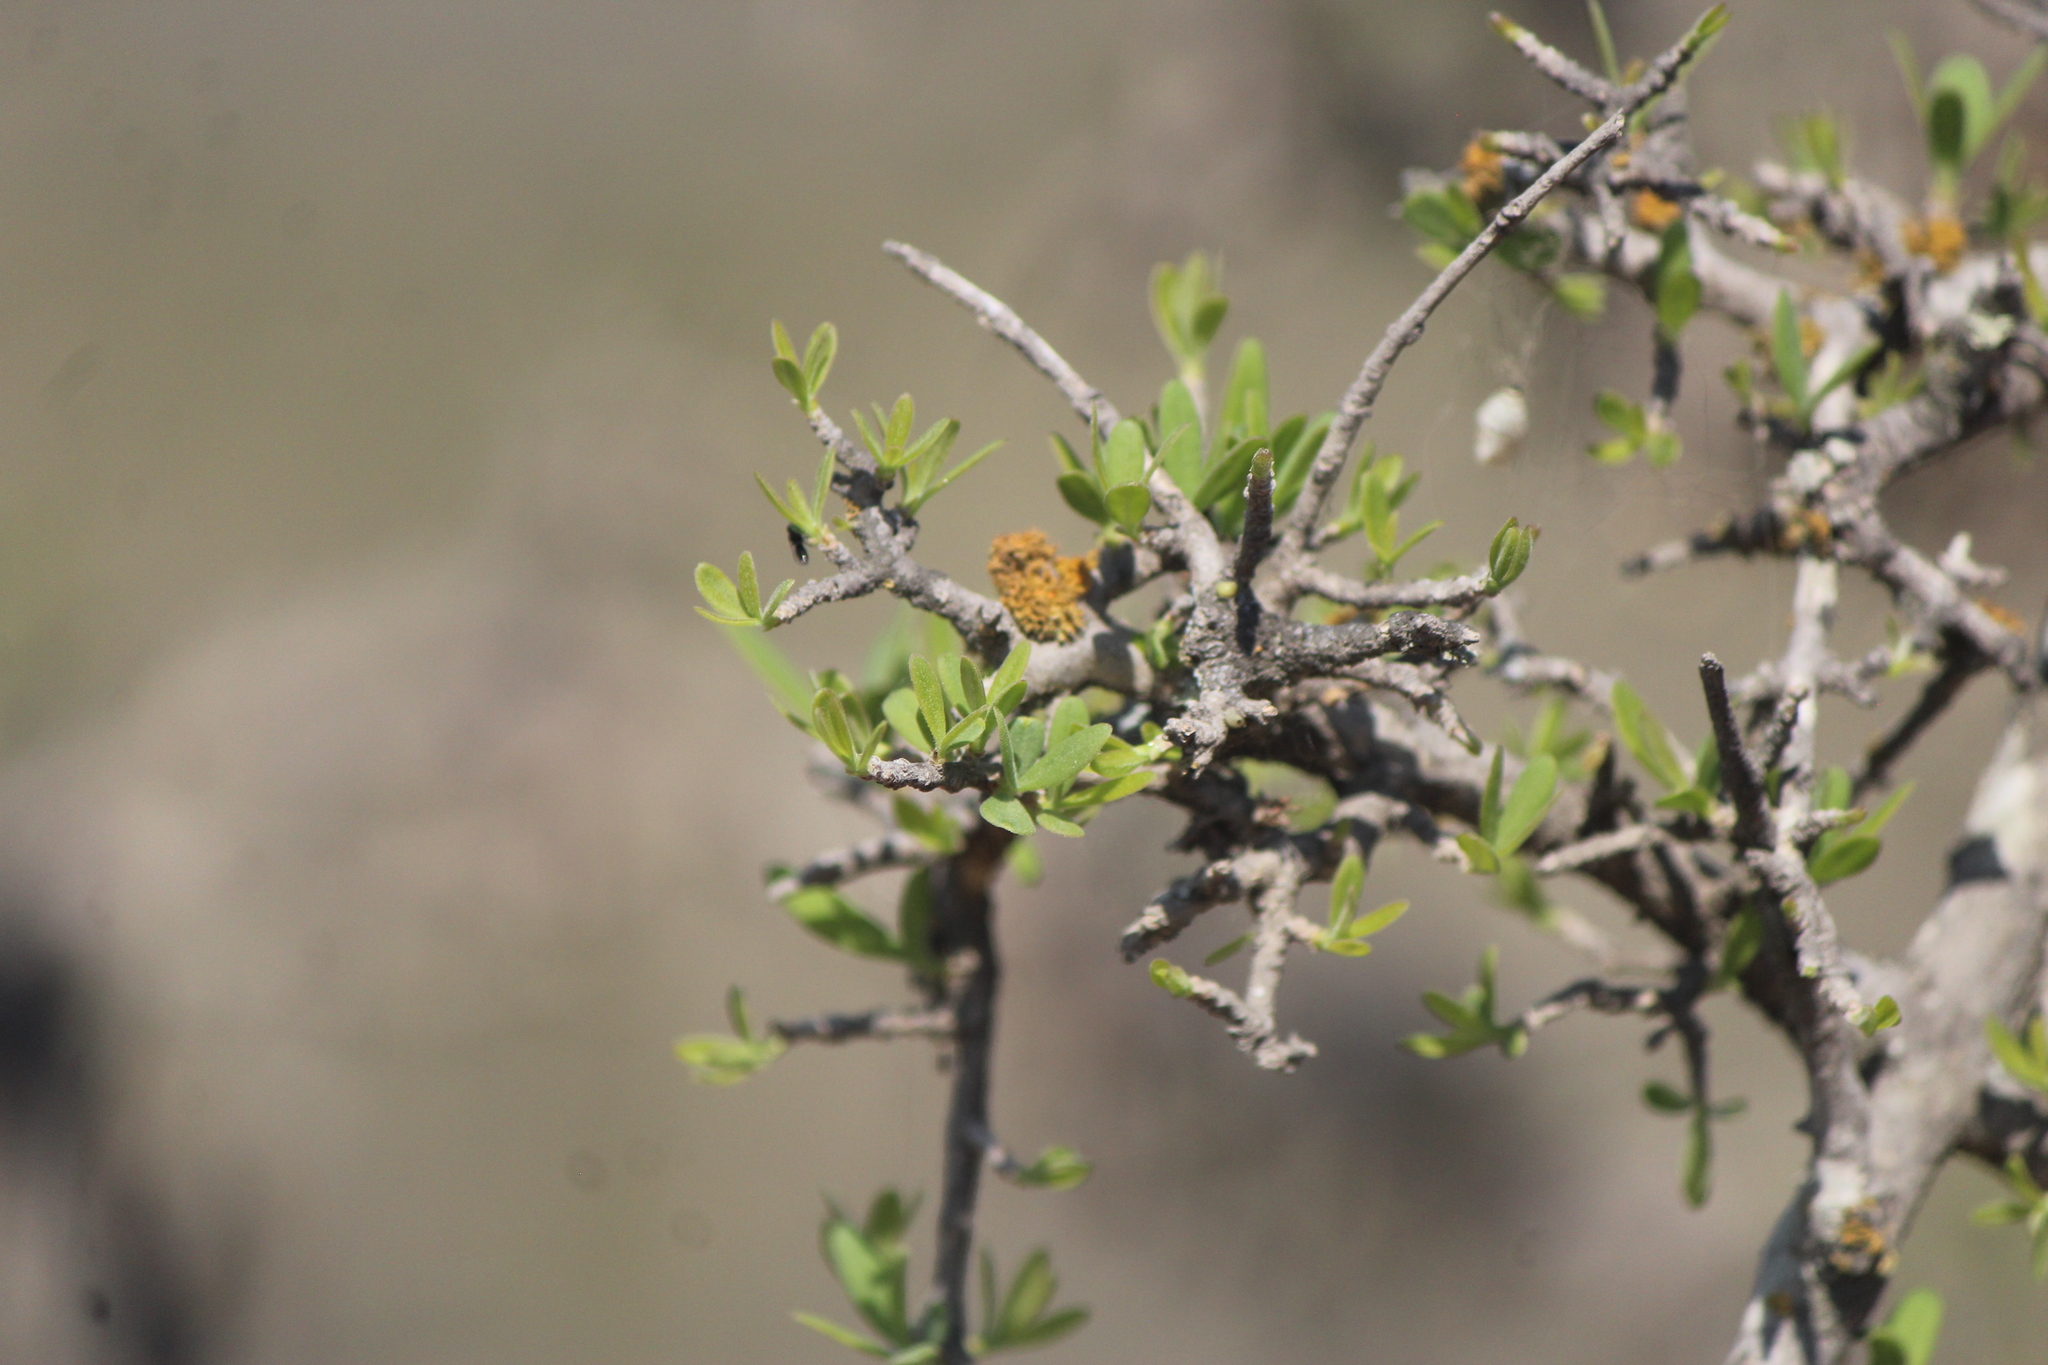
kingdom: Plantae
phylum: Tracheophyta
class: Magnoliopsida
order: Lamiales
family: Oleaceae
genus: Forestiera
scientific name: Forestiera phillyreoides
